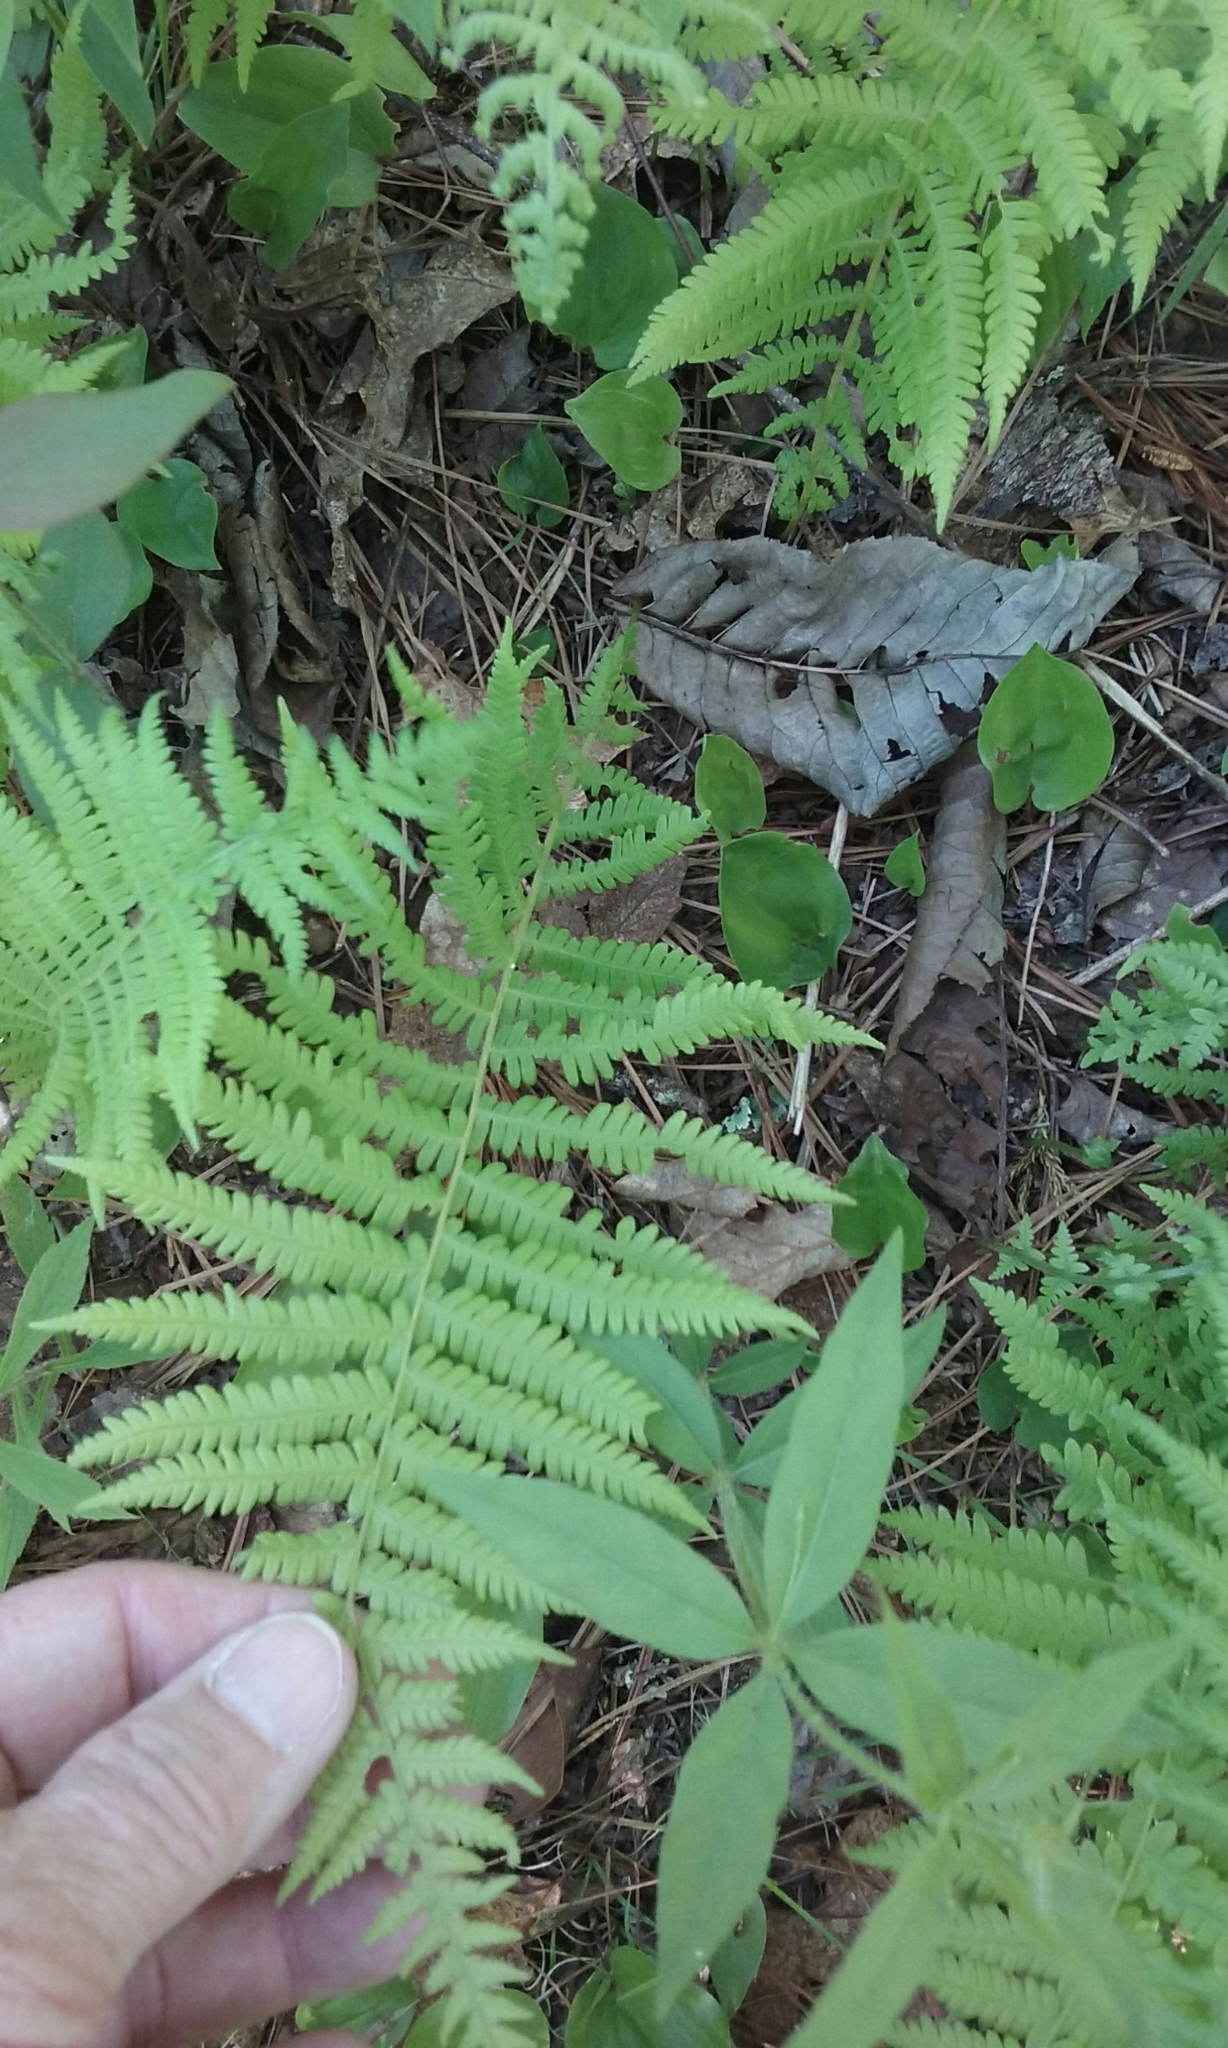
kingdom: Plantae
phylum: Tracheophyta
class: Polypodiopsida
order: Polypodiales
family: Thelypteridaceae
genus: Amauropelta
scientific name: Amauropelta noveboracensis
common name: New york fern
